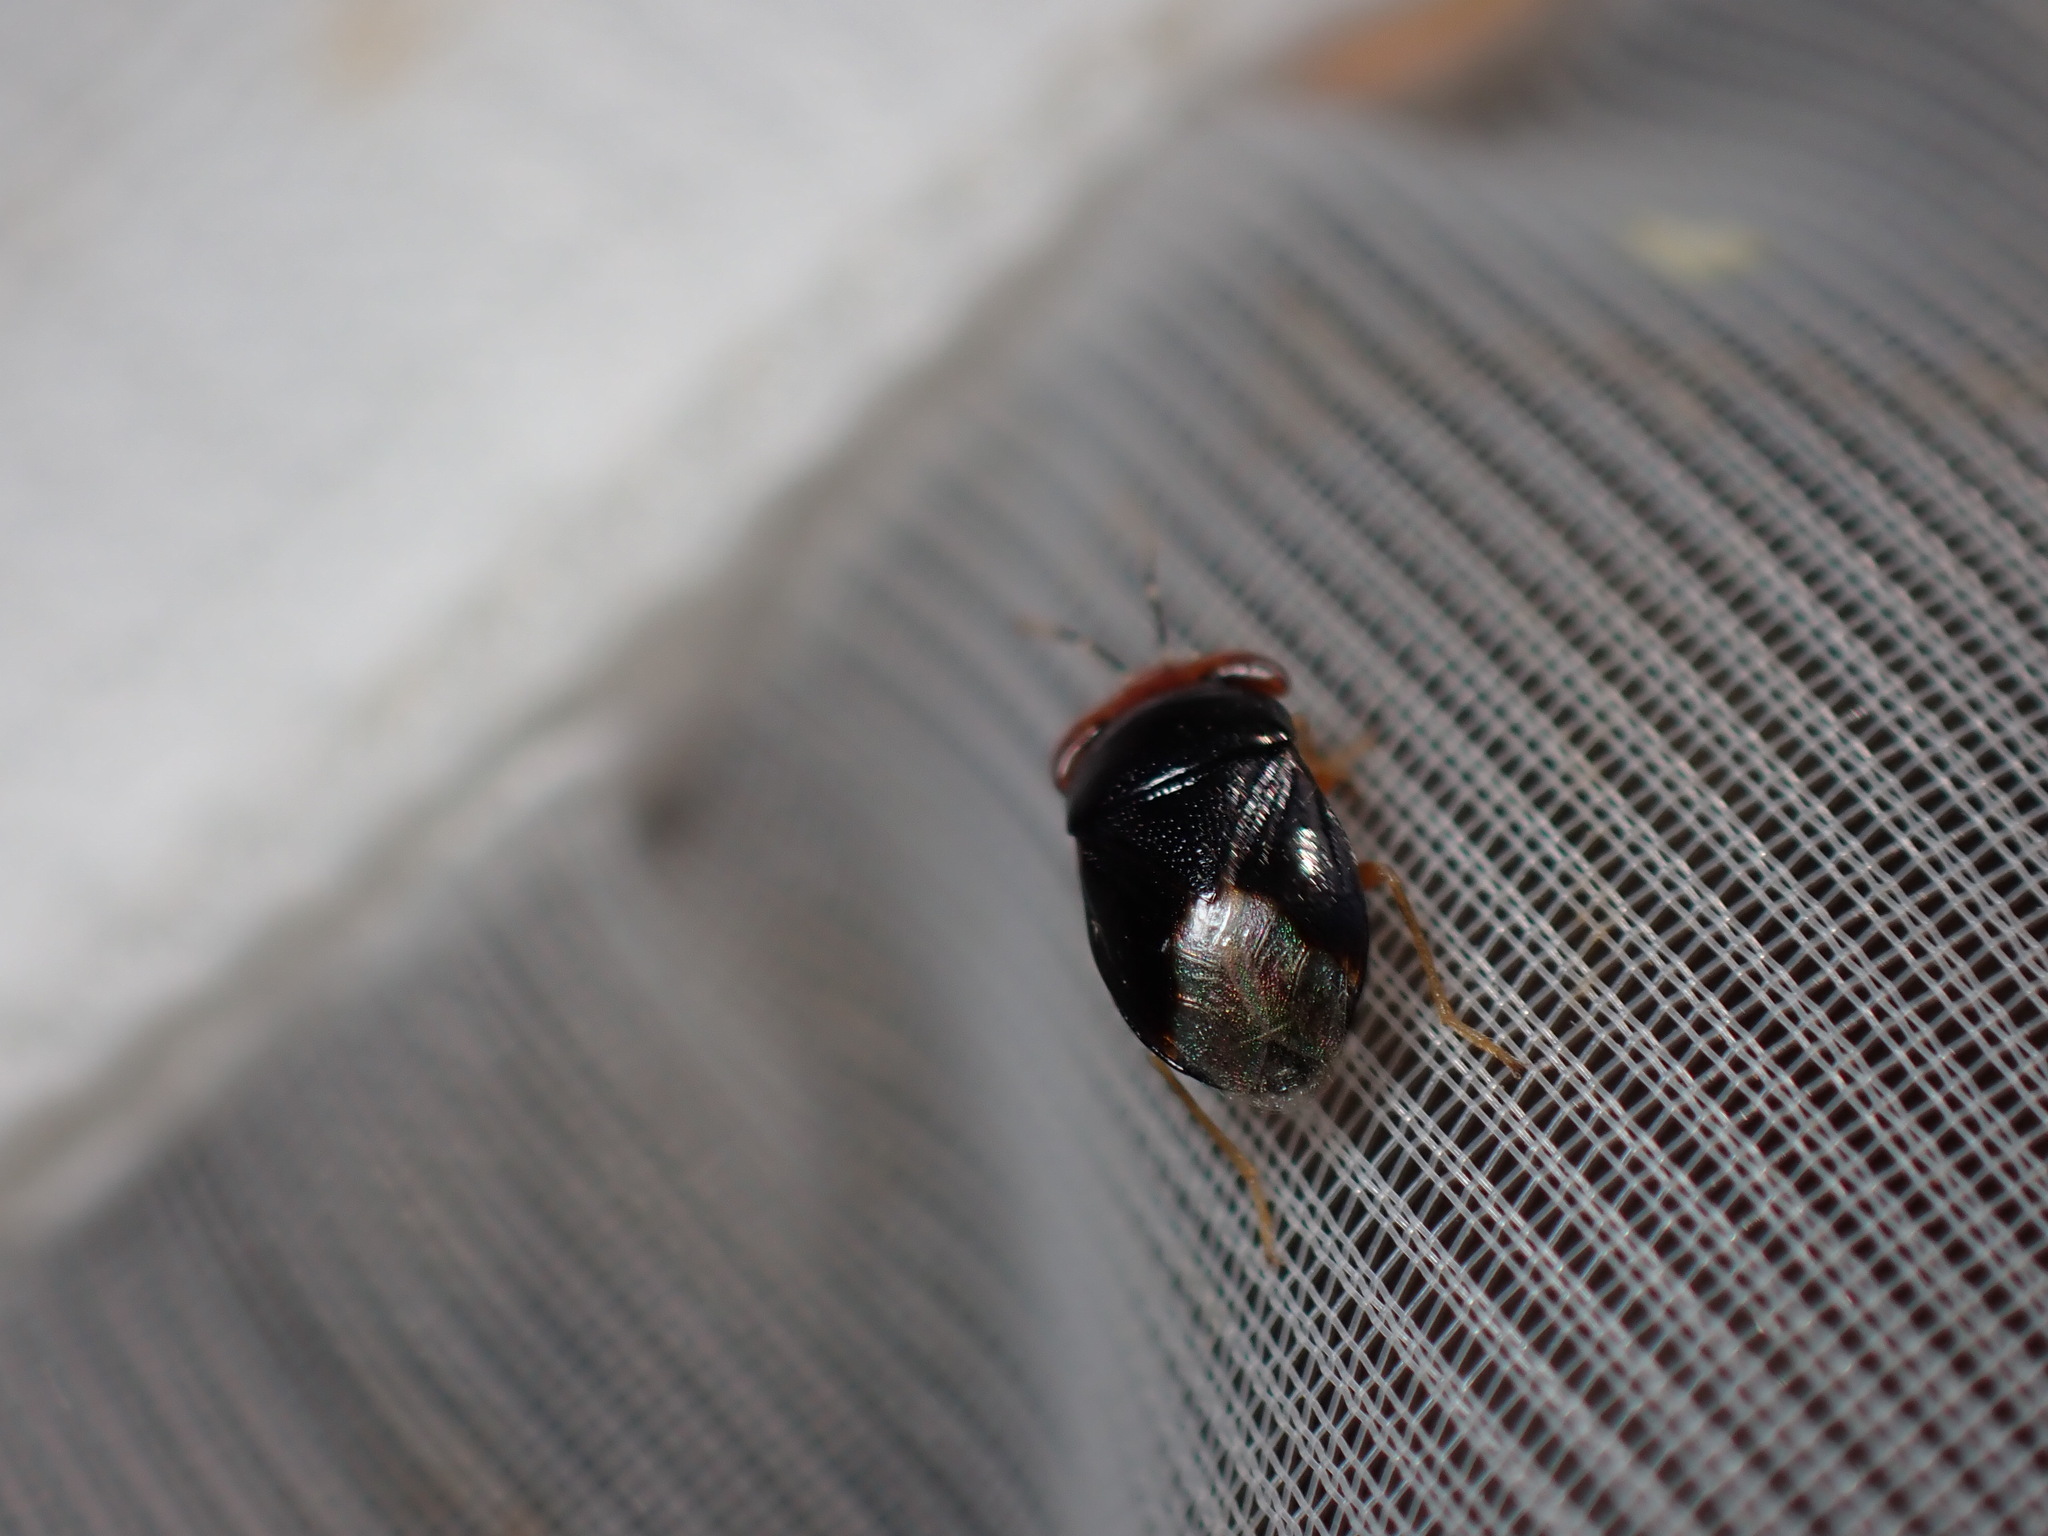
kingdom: Animalia
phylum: Arthropoda
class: Insecta
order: Hemiptera
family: Geocoridae
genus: Geocoris
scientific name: Geocoris erythrocephala
